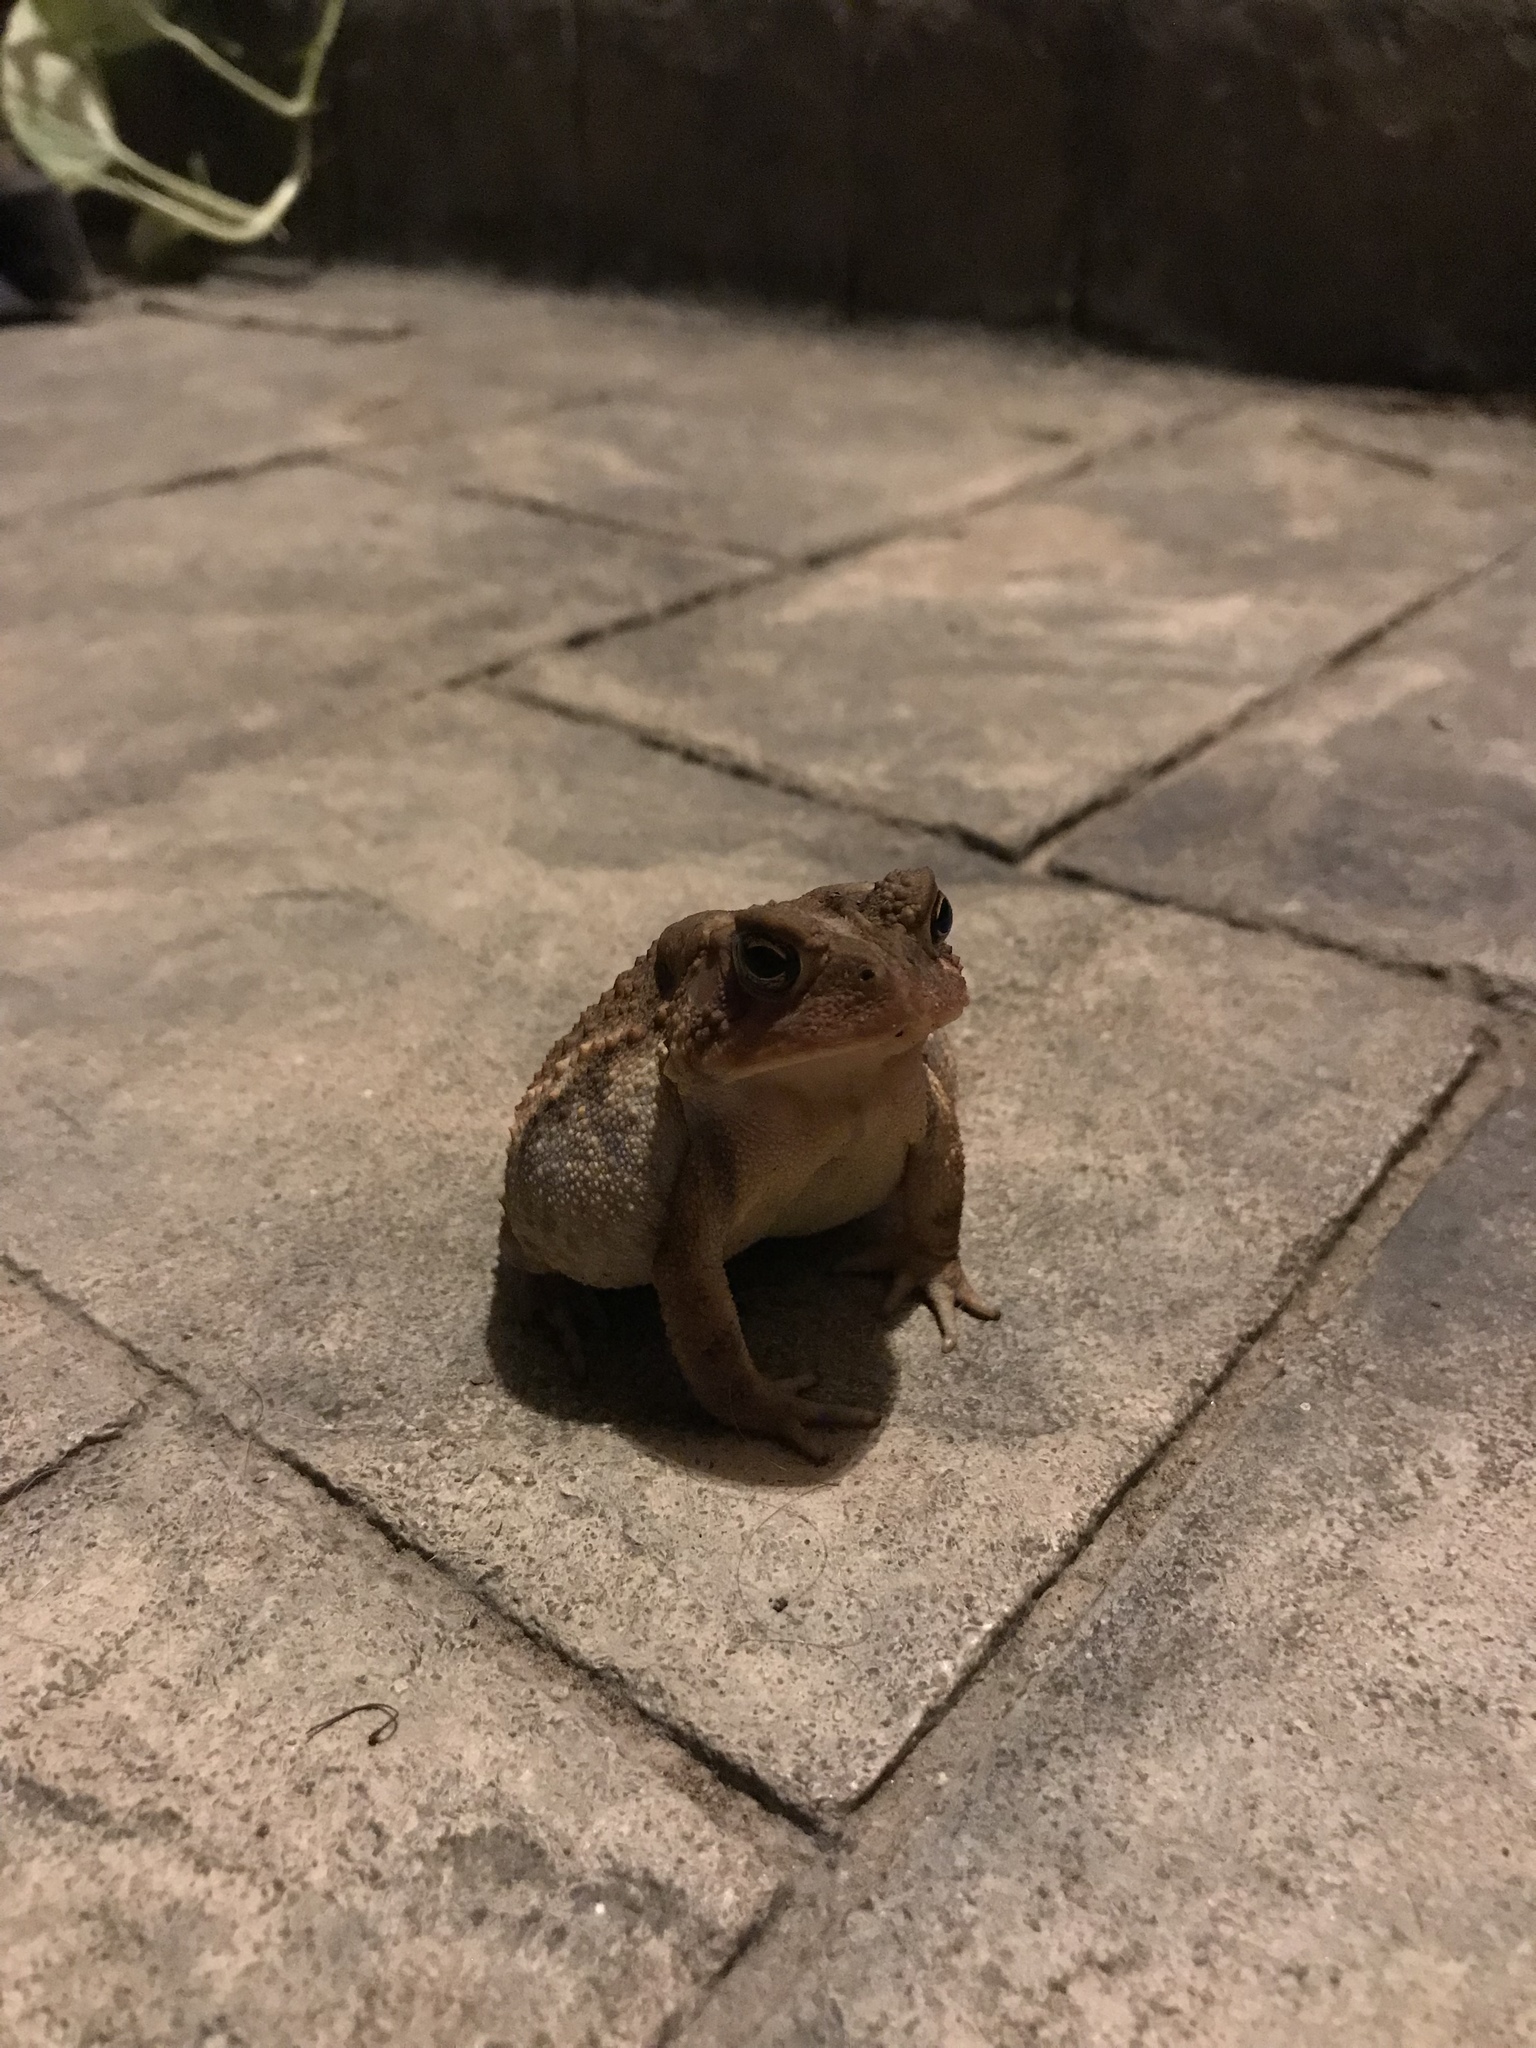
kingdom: Animalia
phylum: Chordata
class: Amphibia
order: Anura
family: Bufonidae
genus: Anaxyrus
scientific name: Anaxyrus americanus
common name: American toad
